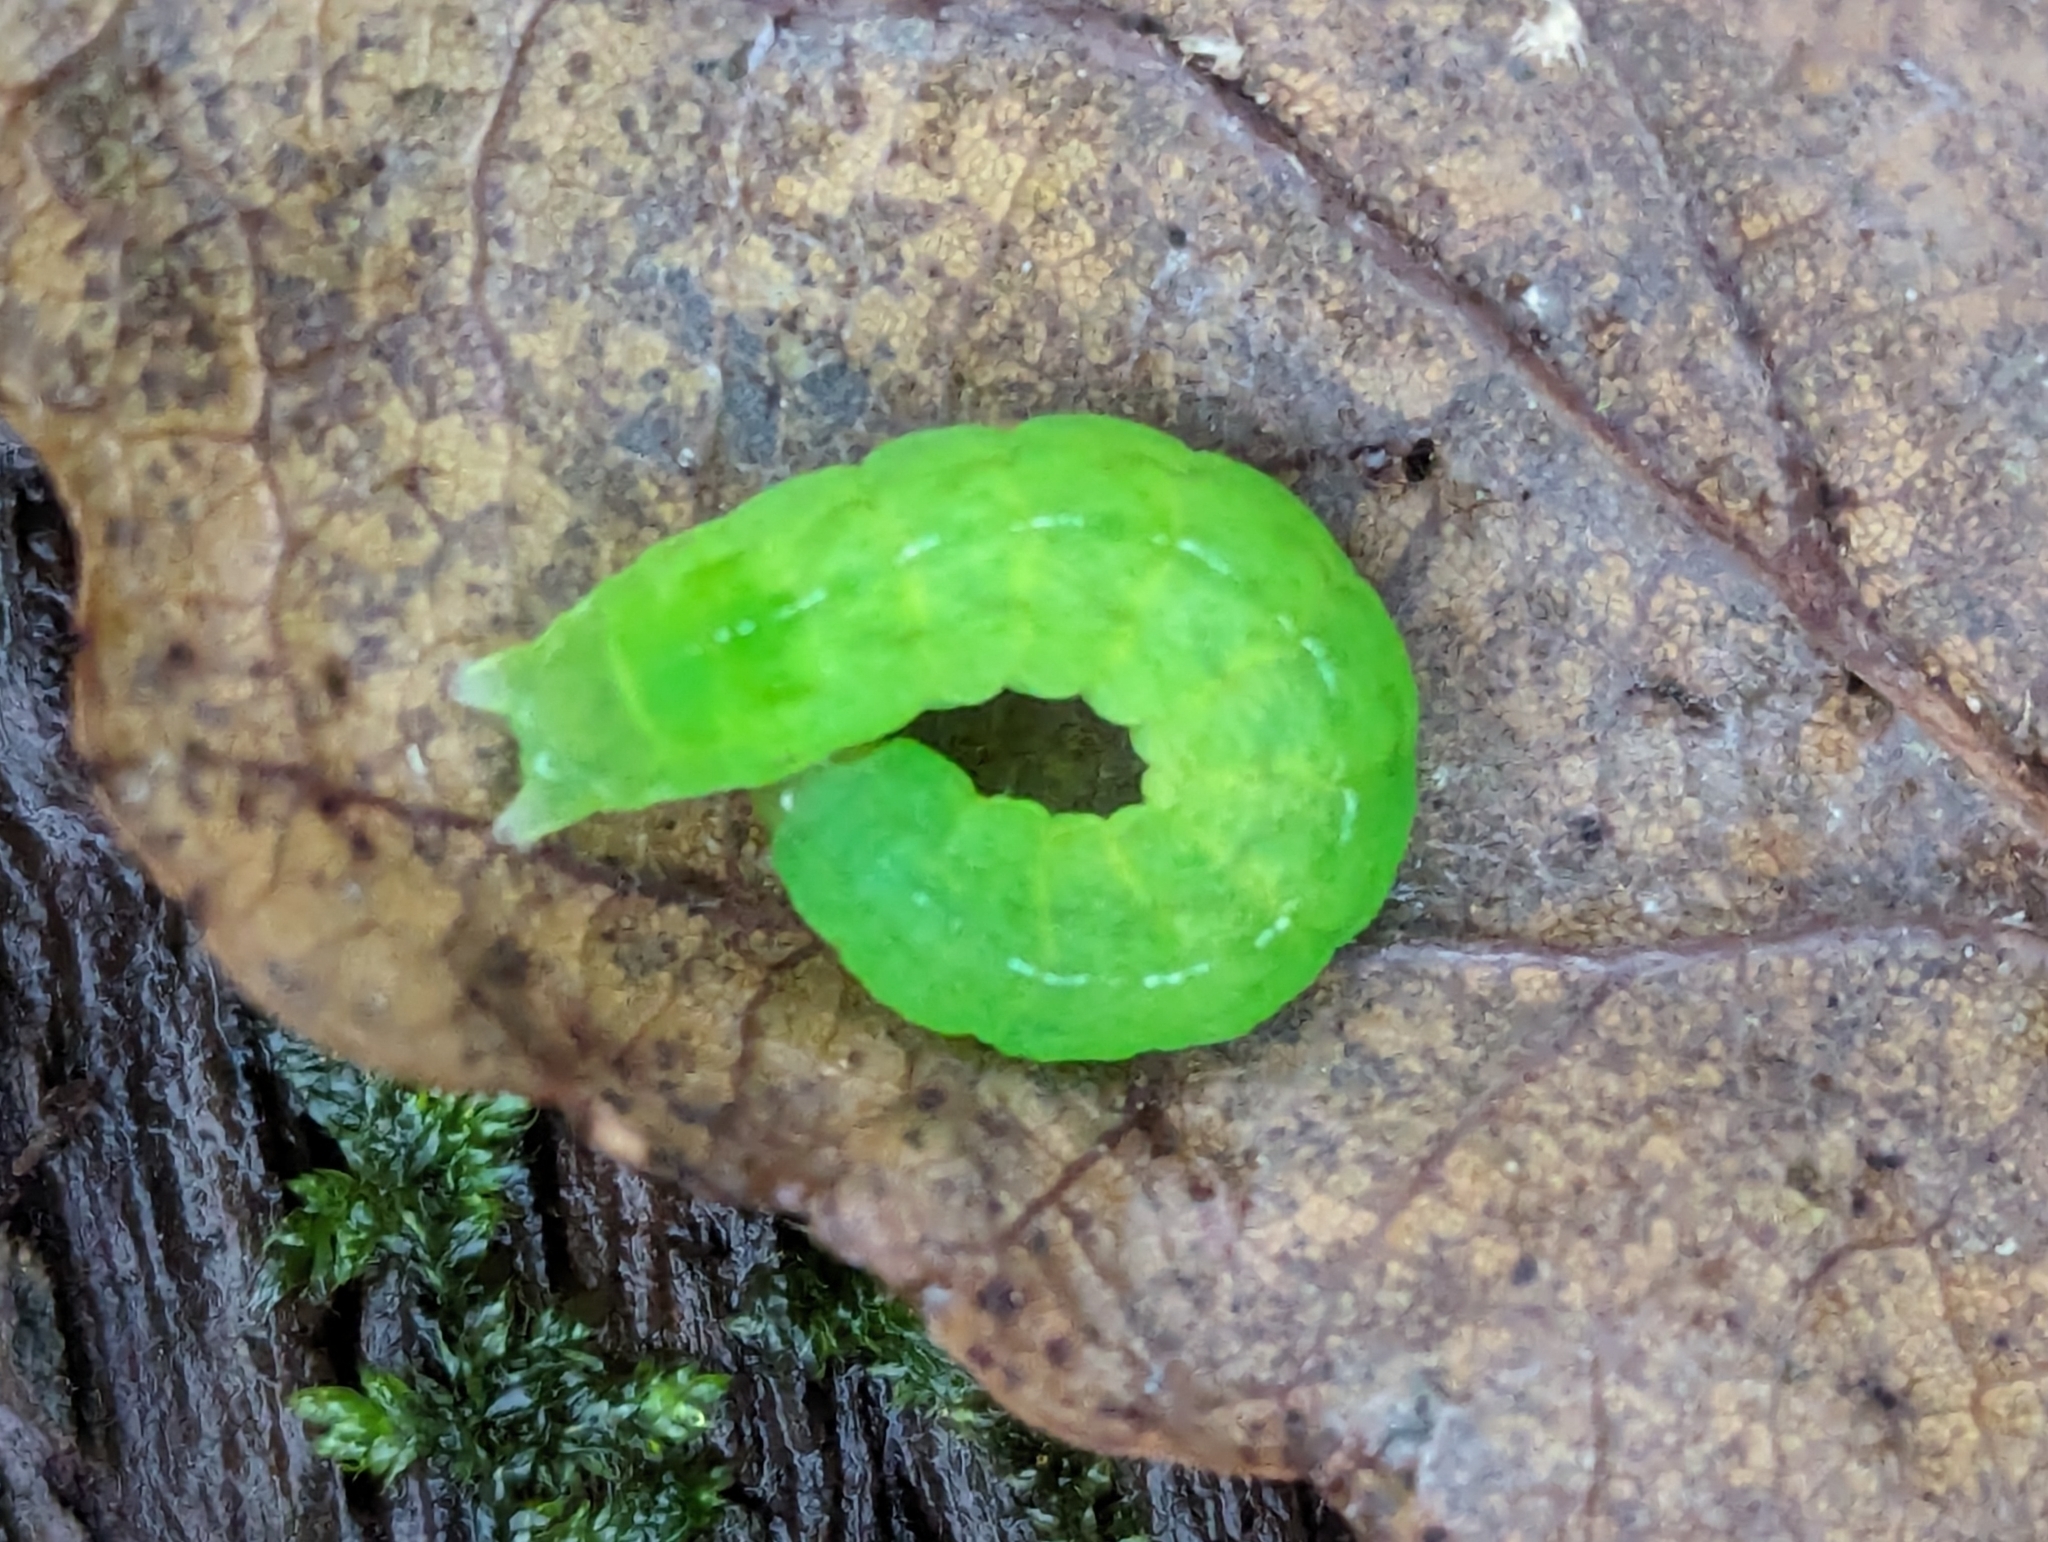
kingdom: Animalia
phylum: Arthropoda
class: Insecta
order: Lepidoptera
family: Noctuidae
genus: Phlogophora
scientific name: Phlogophora meticulosa
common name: Angle shades
